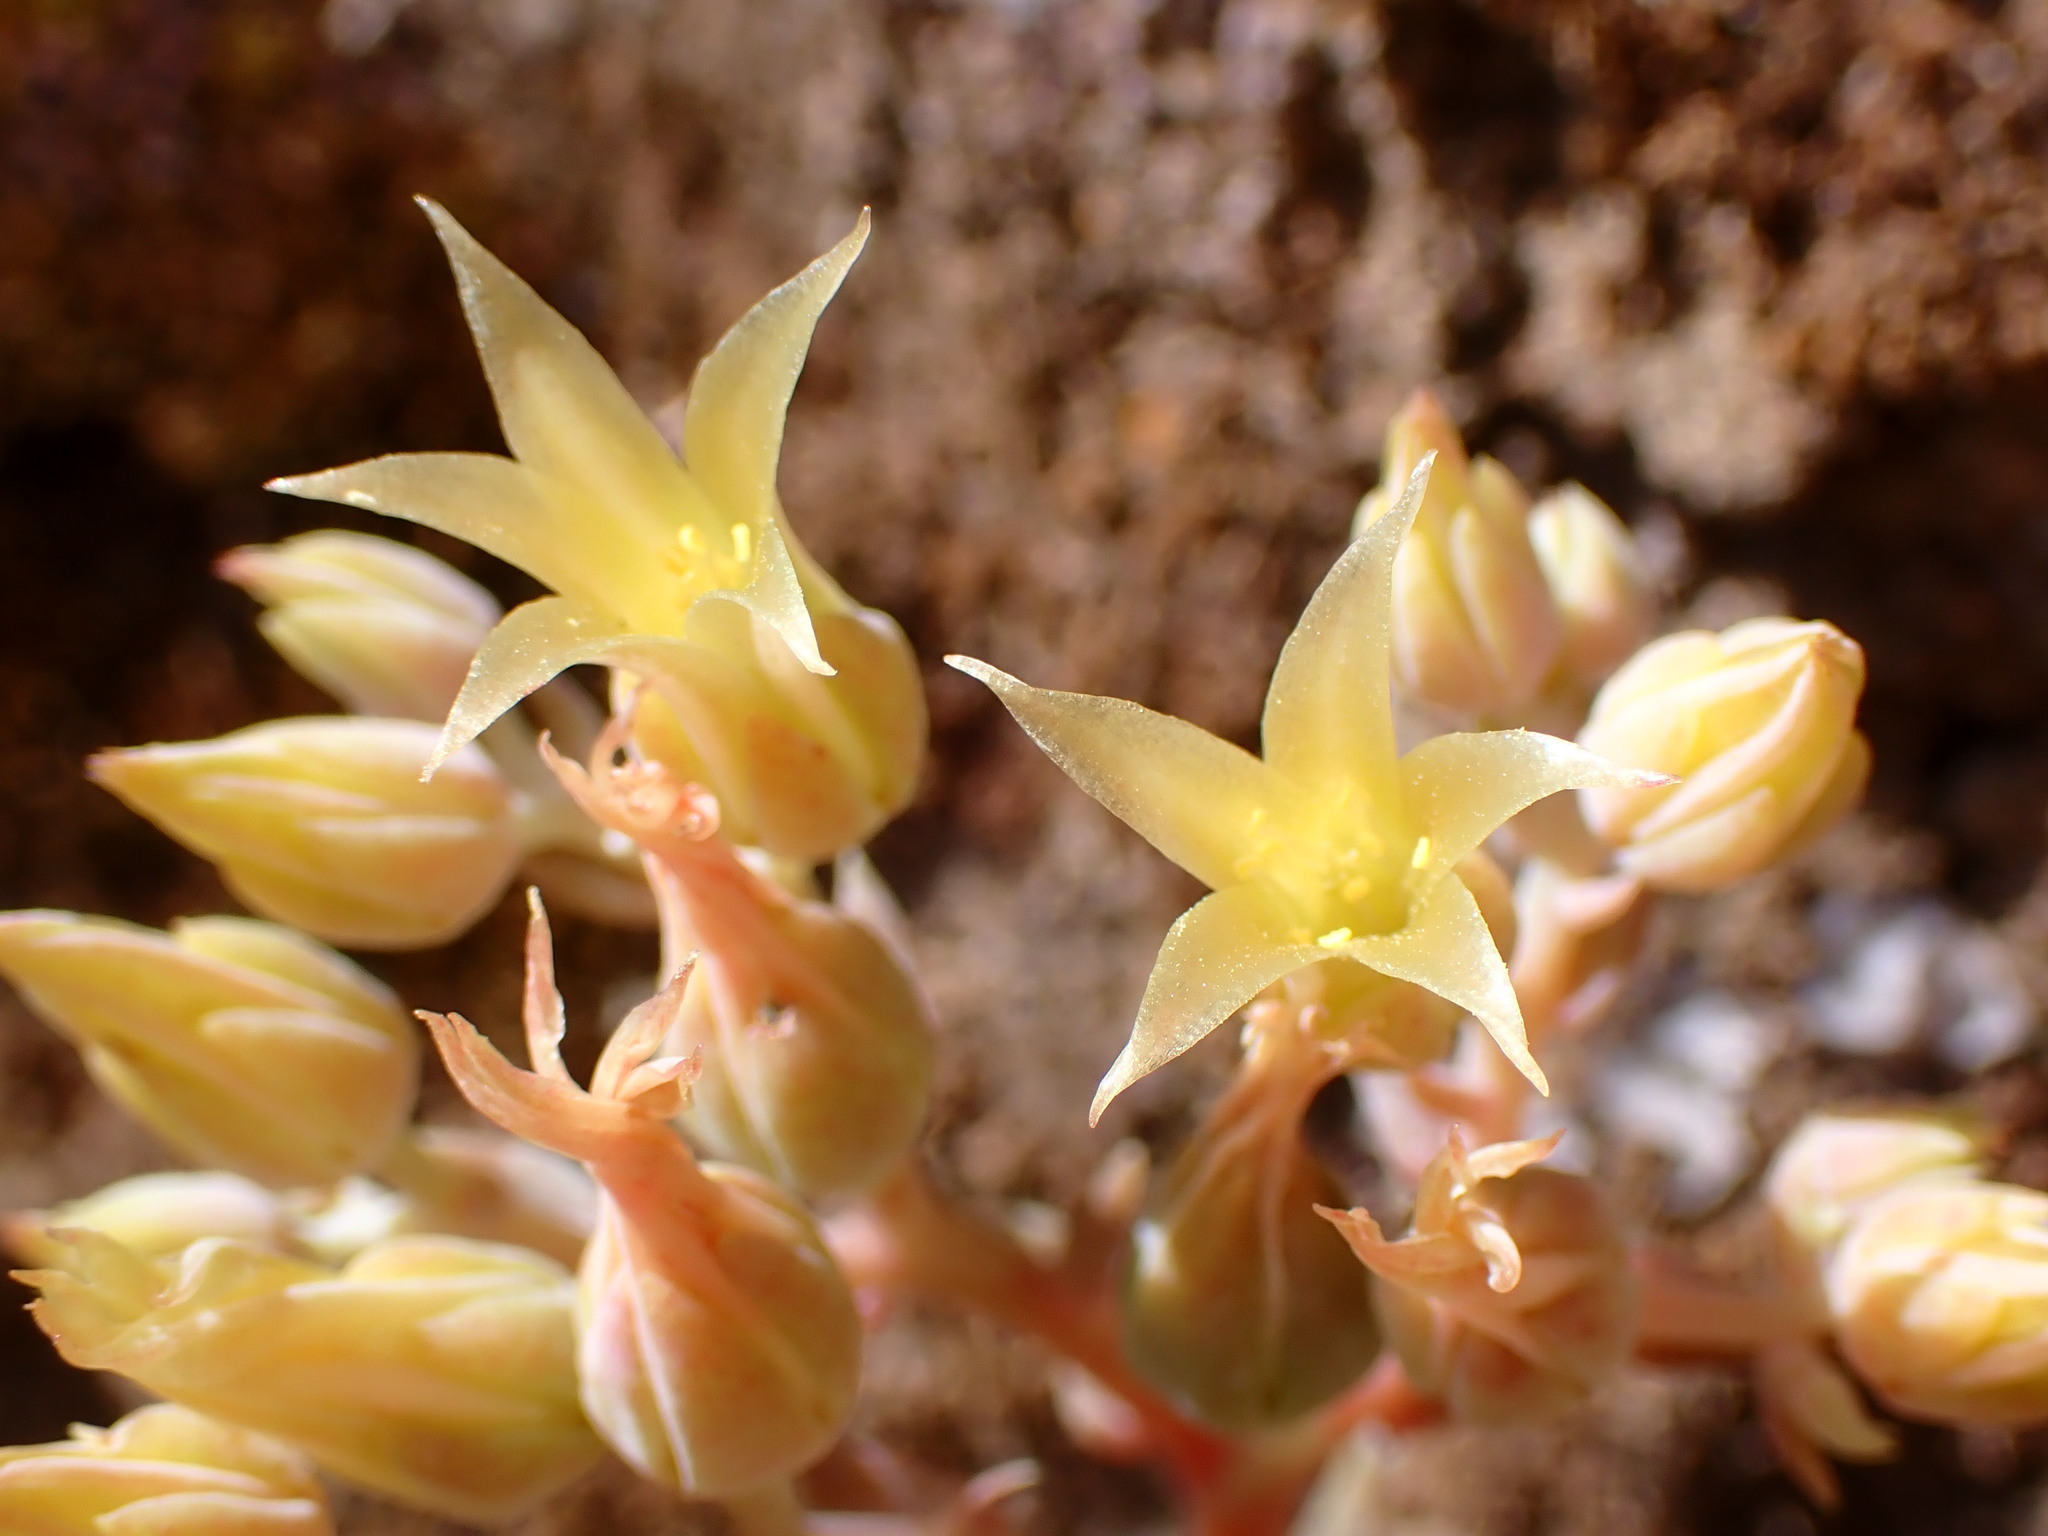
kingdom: Plantae
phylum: Tracheophyta
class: Magnoliopsida
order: Saxifragales
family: Crassulaceae
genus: Dudleya
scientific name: Dudleya cymosa
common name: Canyon dudleya
